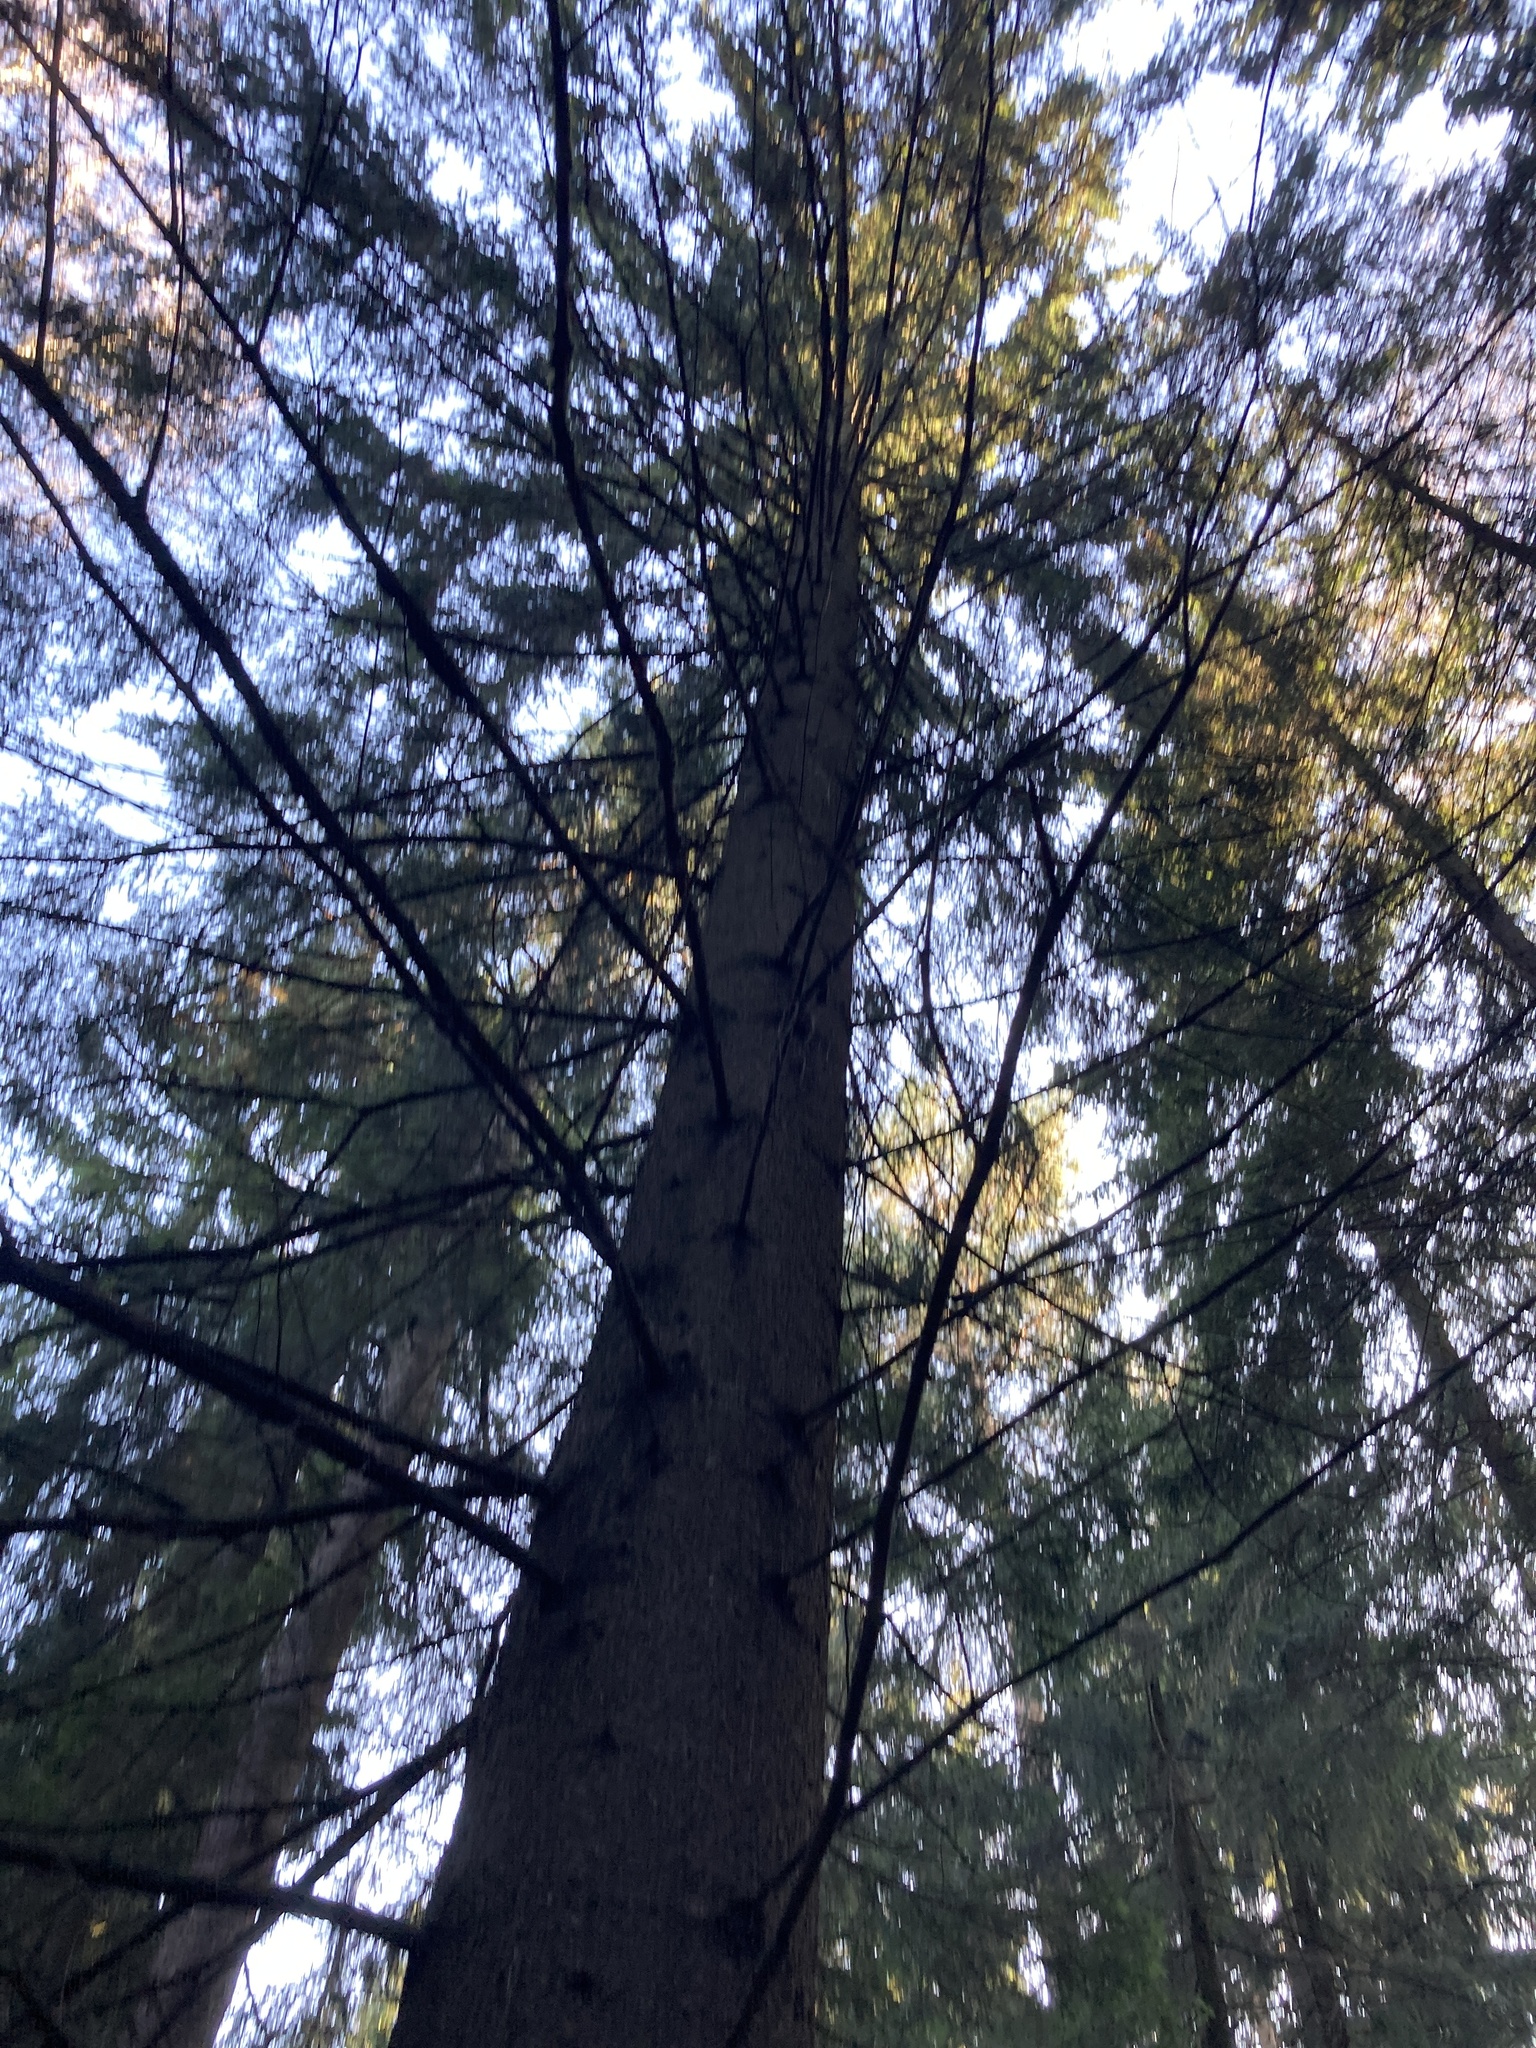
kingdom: Plantae
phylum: Tracheophyta
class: Pinopsida
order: Pinales
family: Pinaceae
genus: Picea
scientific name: Picea abies
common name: Norway spruce
